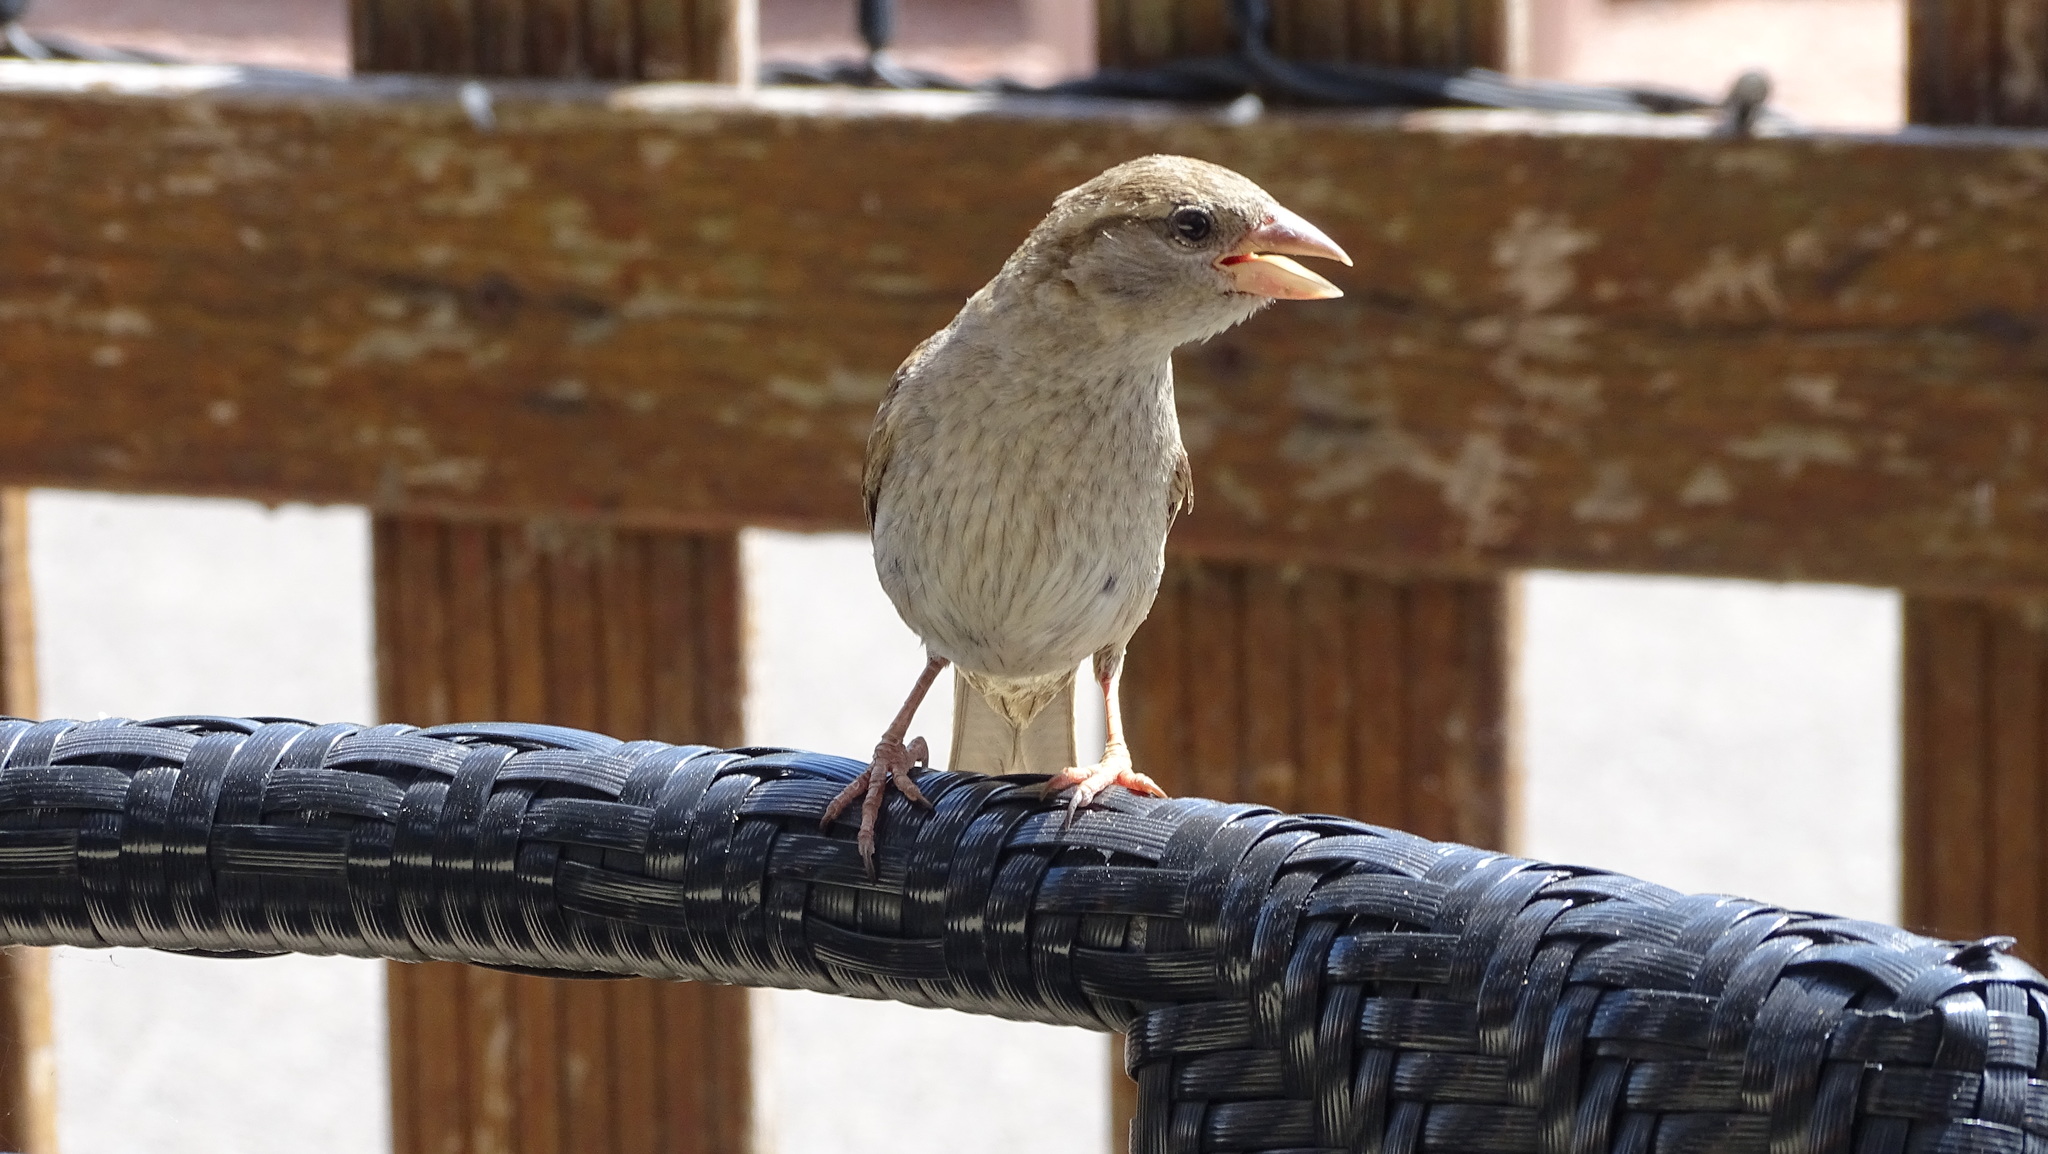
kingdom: Animalia
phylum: Chordata
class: Aves
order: Passeriformes
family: Passeridae
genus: Passer
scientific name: Passer domesticus
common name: House sparrow
